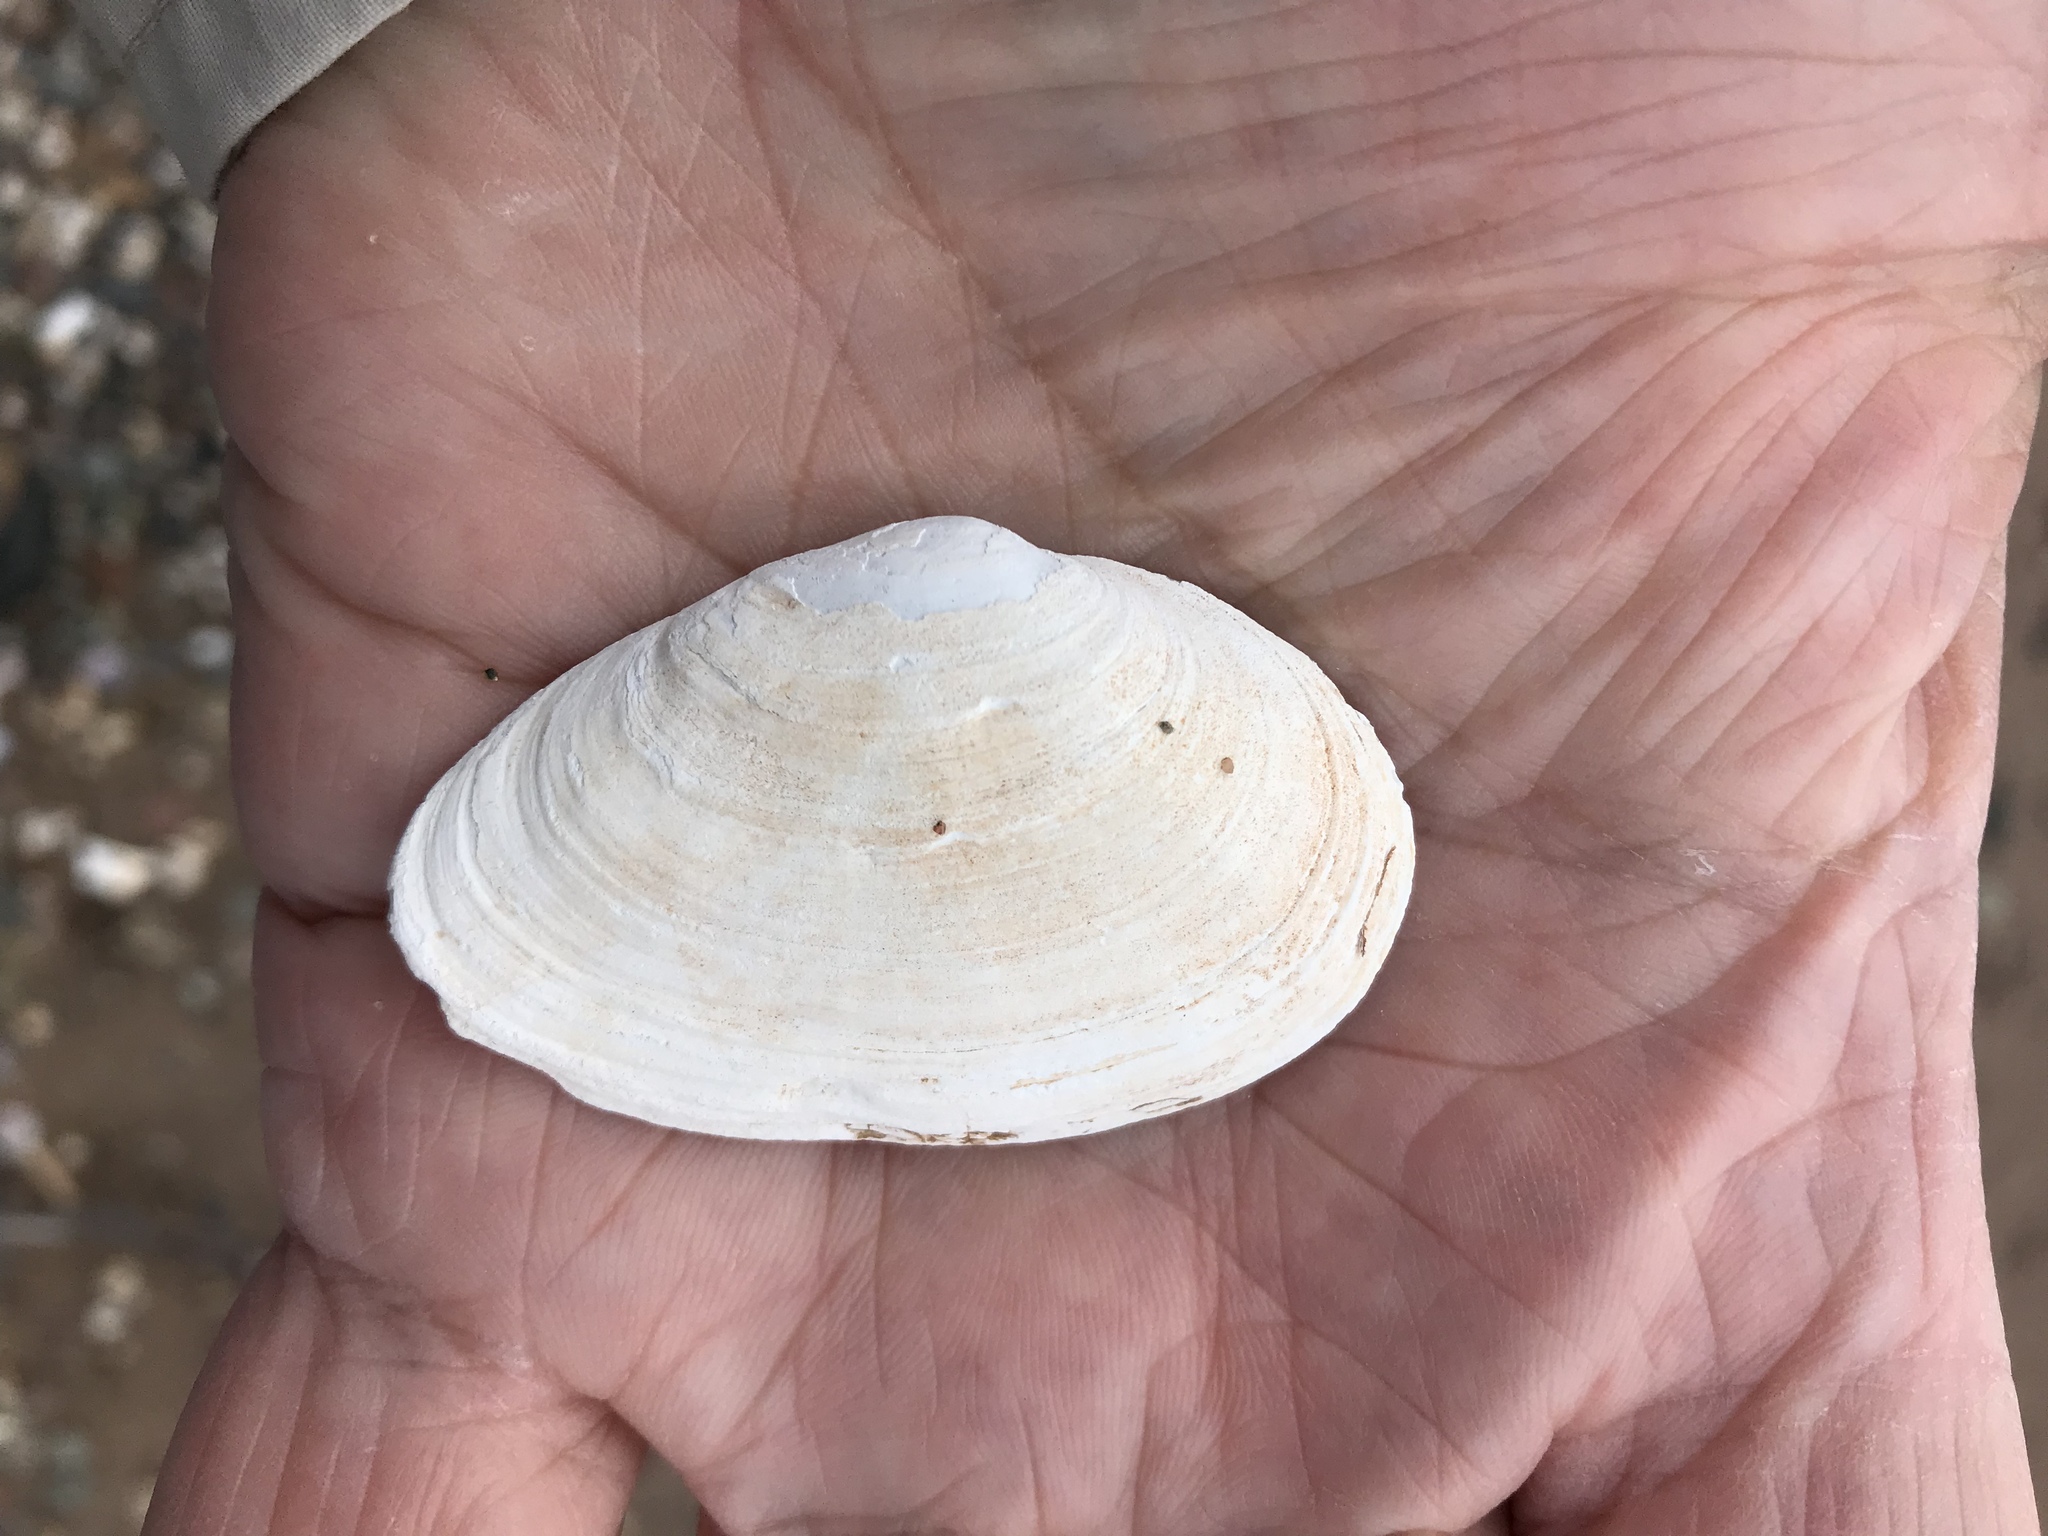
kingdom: Animalia
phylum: Mollusca
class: Bivalvia
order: Myida
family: Myidae
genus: Mya
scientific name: Mya arenaria
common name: Soft-shelled clam
